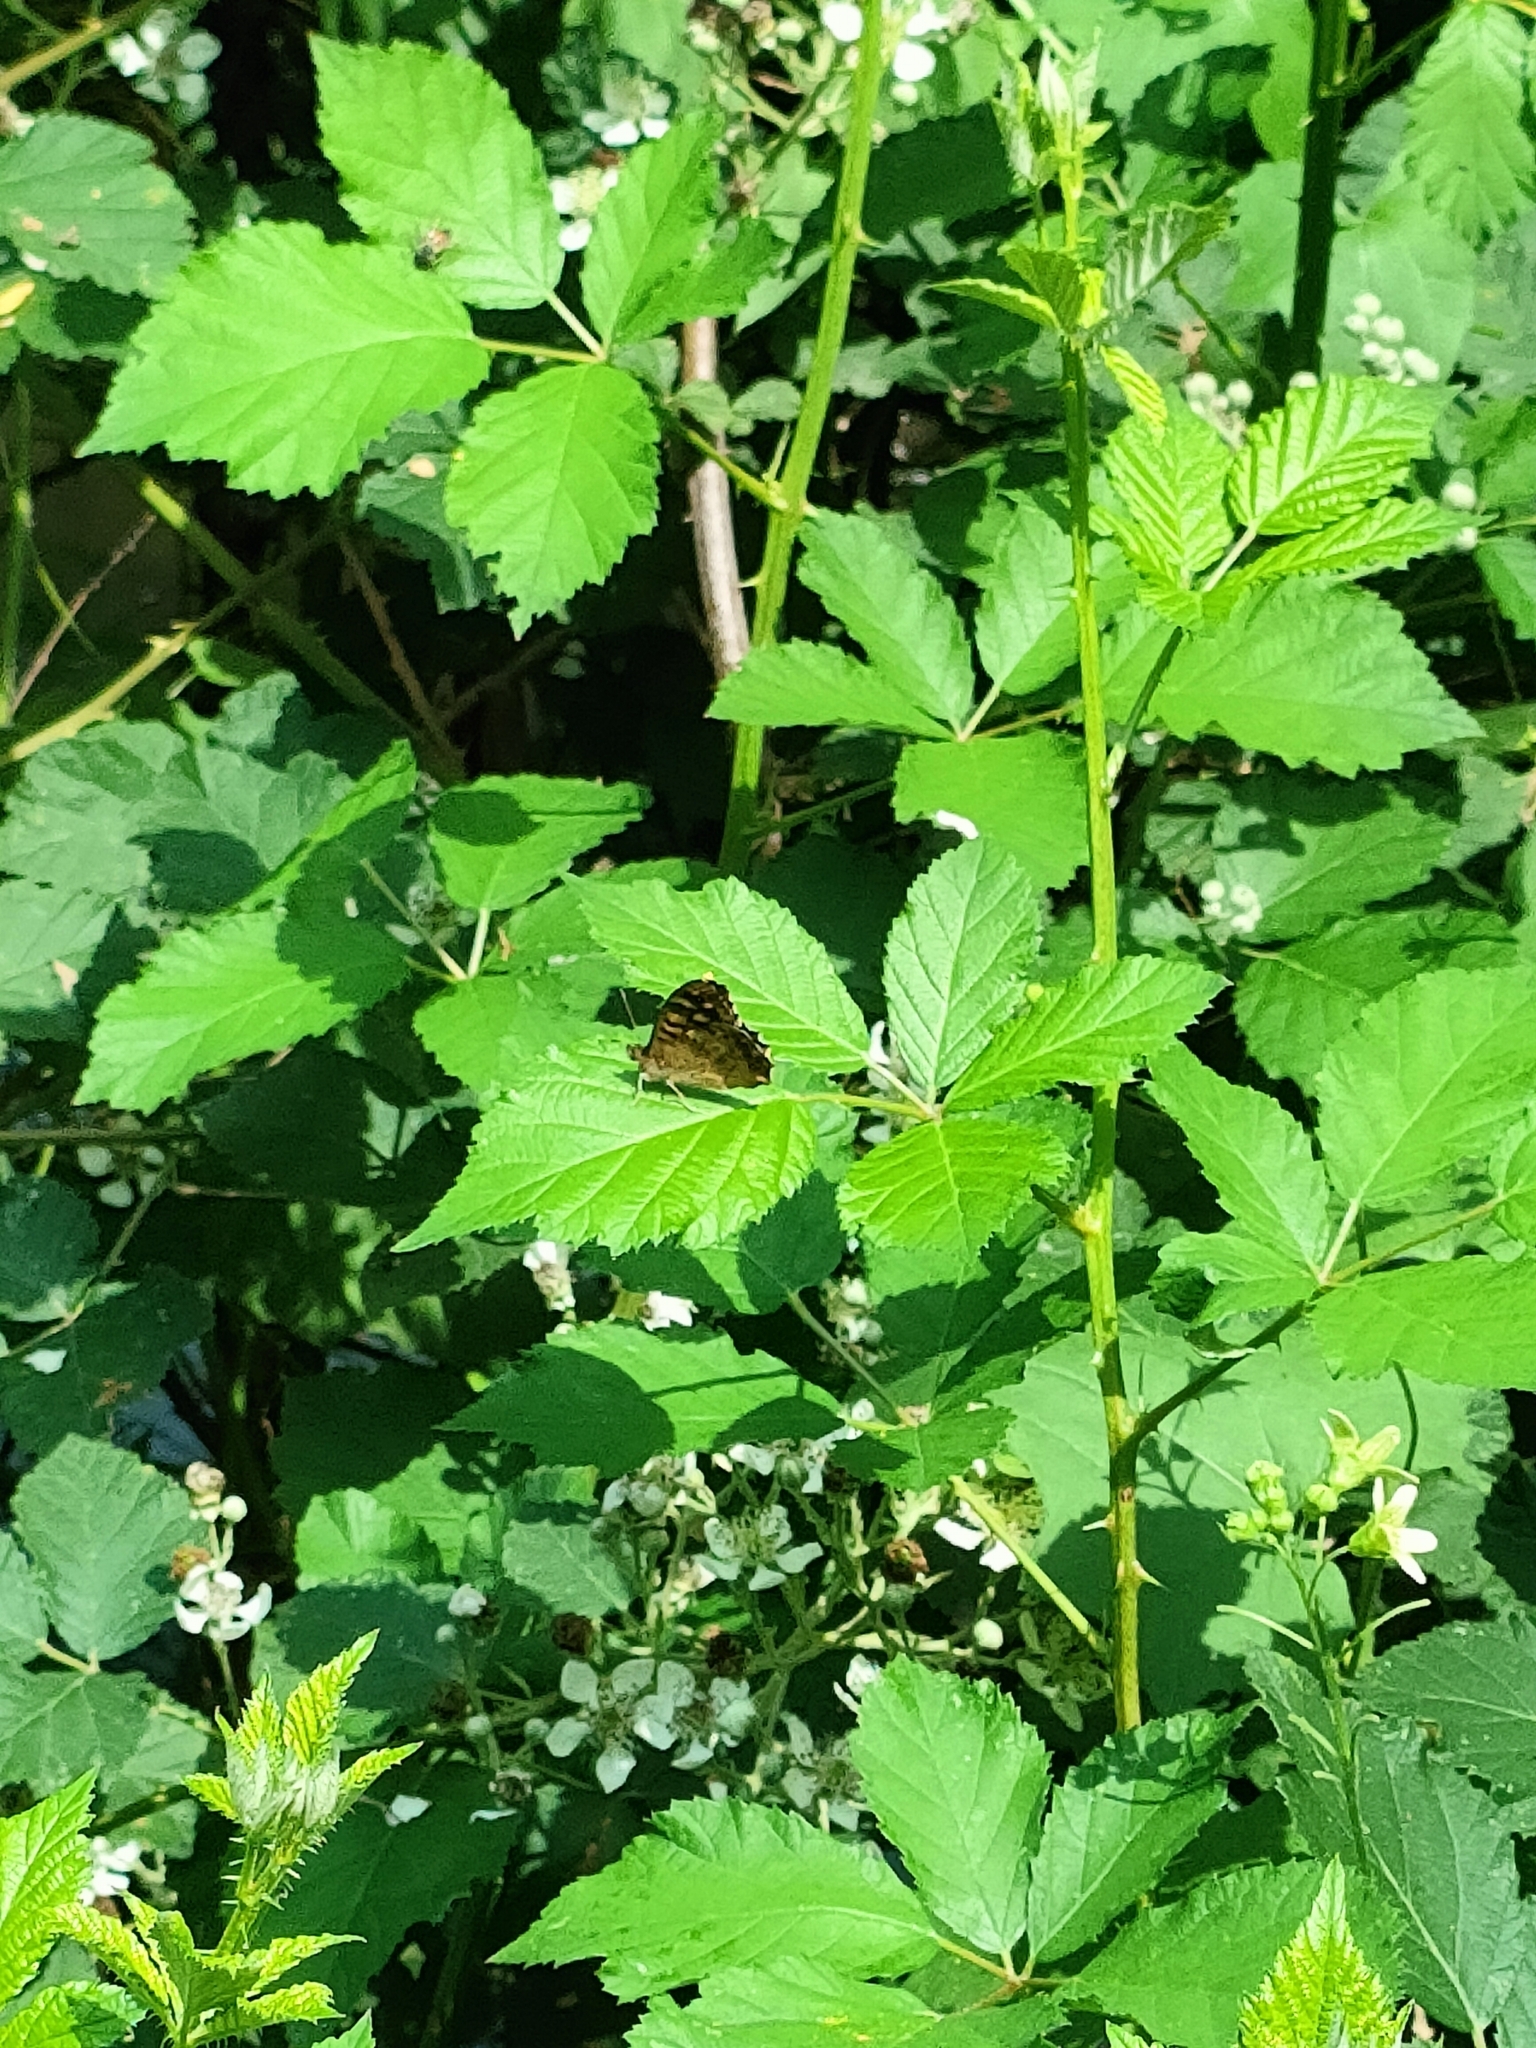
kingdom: Animalia
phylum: Arthropoda
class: Insecta
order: Lepidoptera
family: Nymphalidae
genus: Pararge
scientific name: Pararge aegeria
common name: Speckled wood
